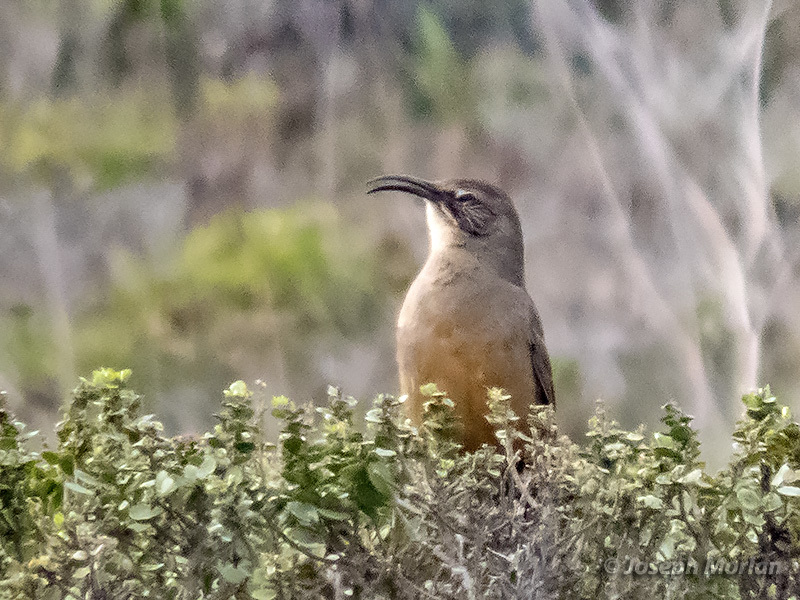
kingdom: Animalia
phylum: Chordata
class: Aves
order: Passeriformes
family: Mimidae
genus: Toxostoma
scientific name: Toxostoma redivivum
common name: California thrasher
